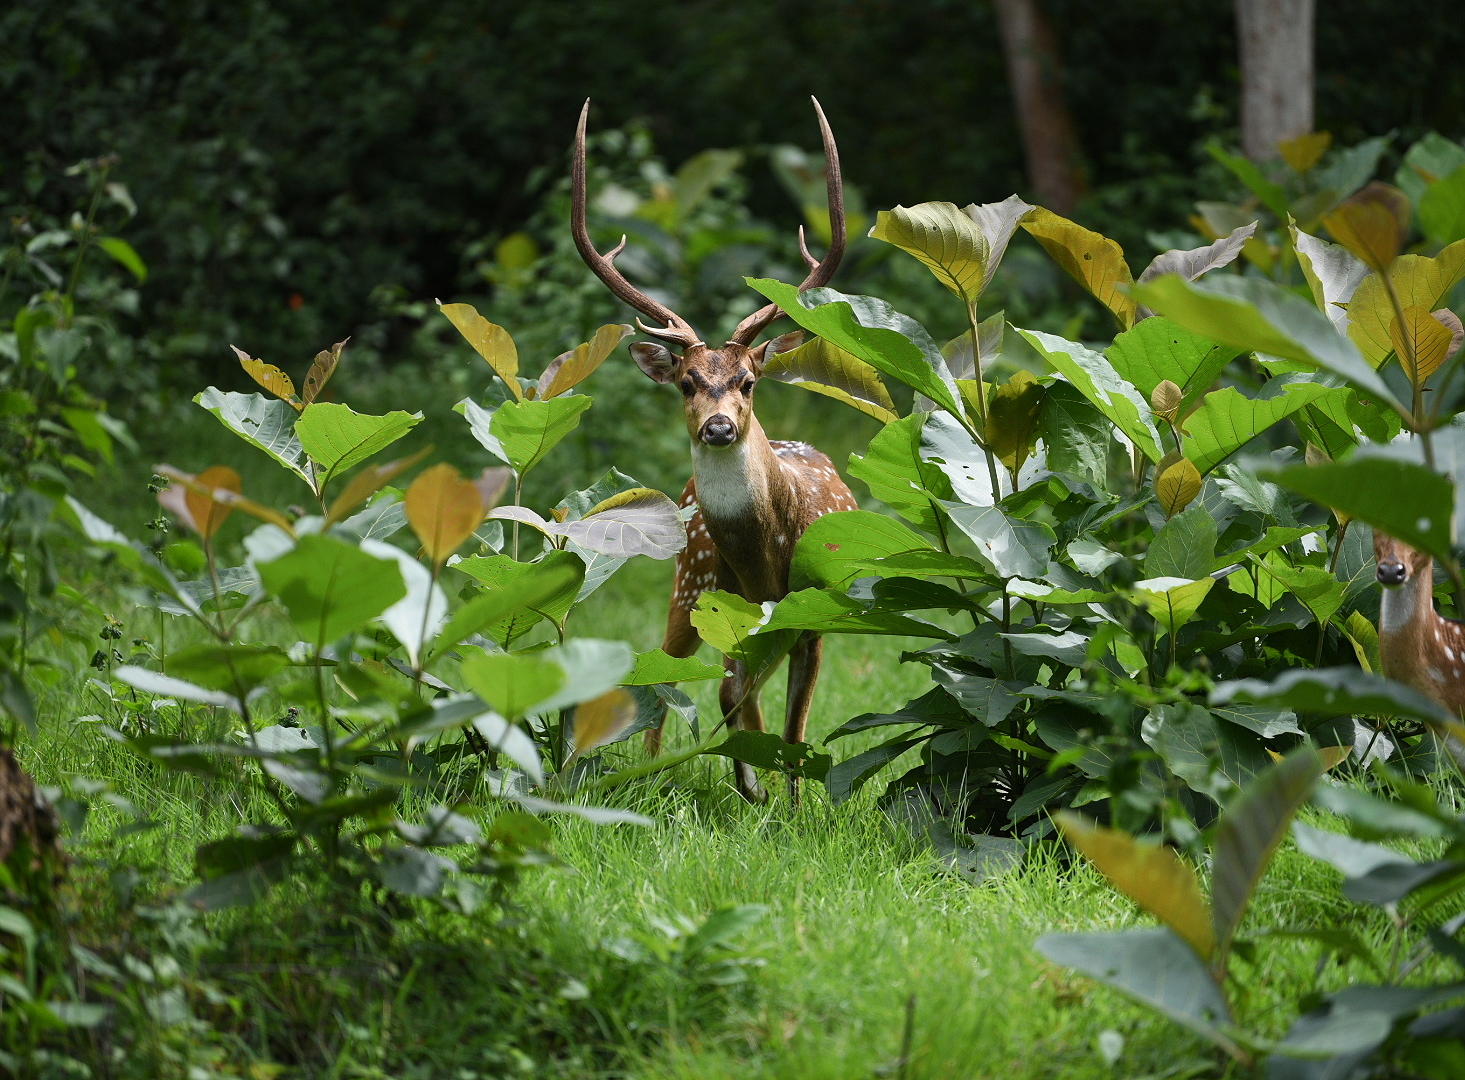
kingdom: Animalia
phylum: Chordata
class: Mammalia
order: Artiodactyla
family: Cervidae
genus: Axis
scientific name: Axis axis
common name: Chital
